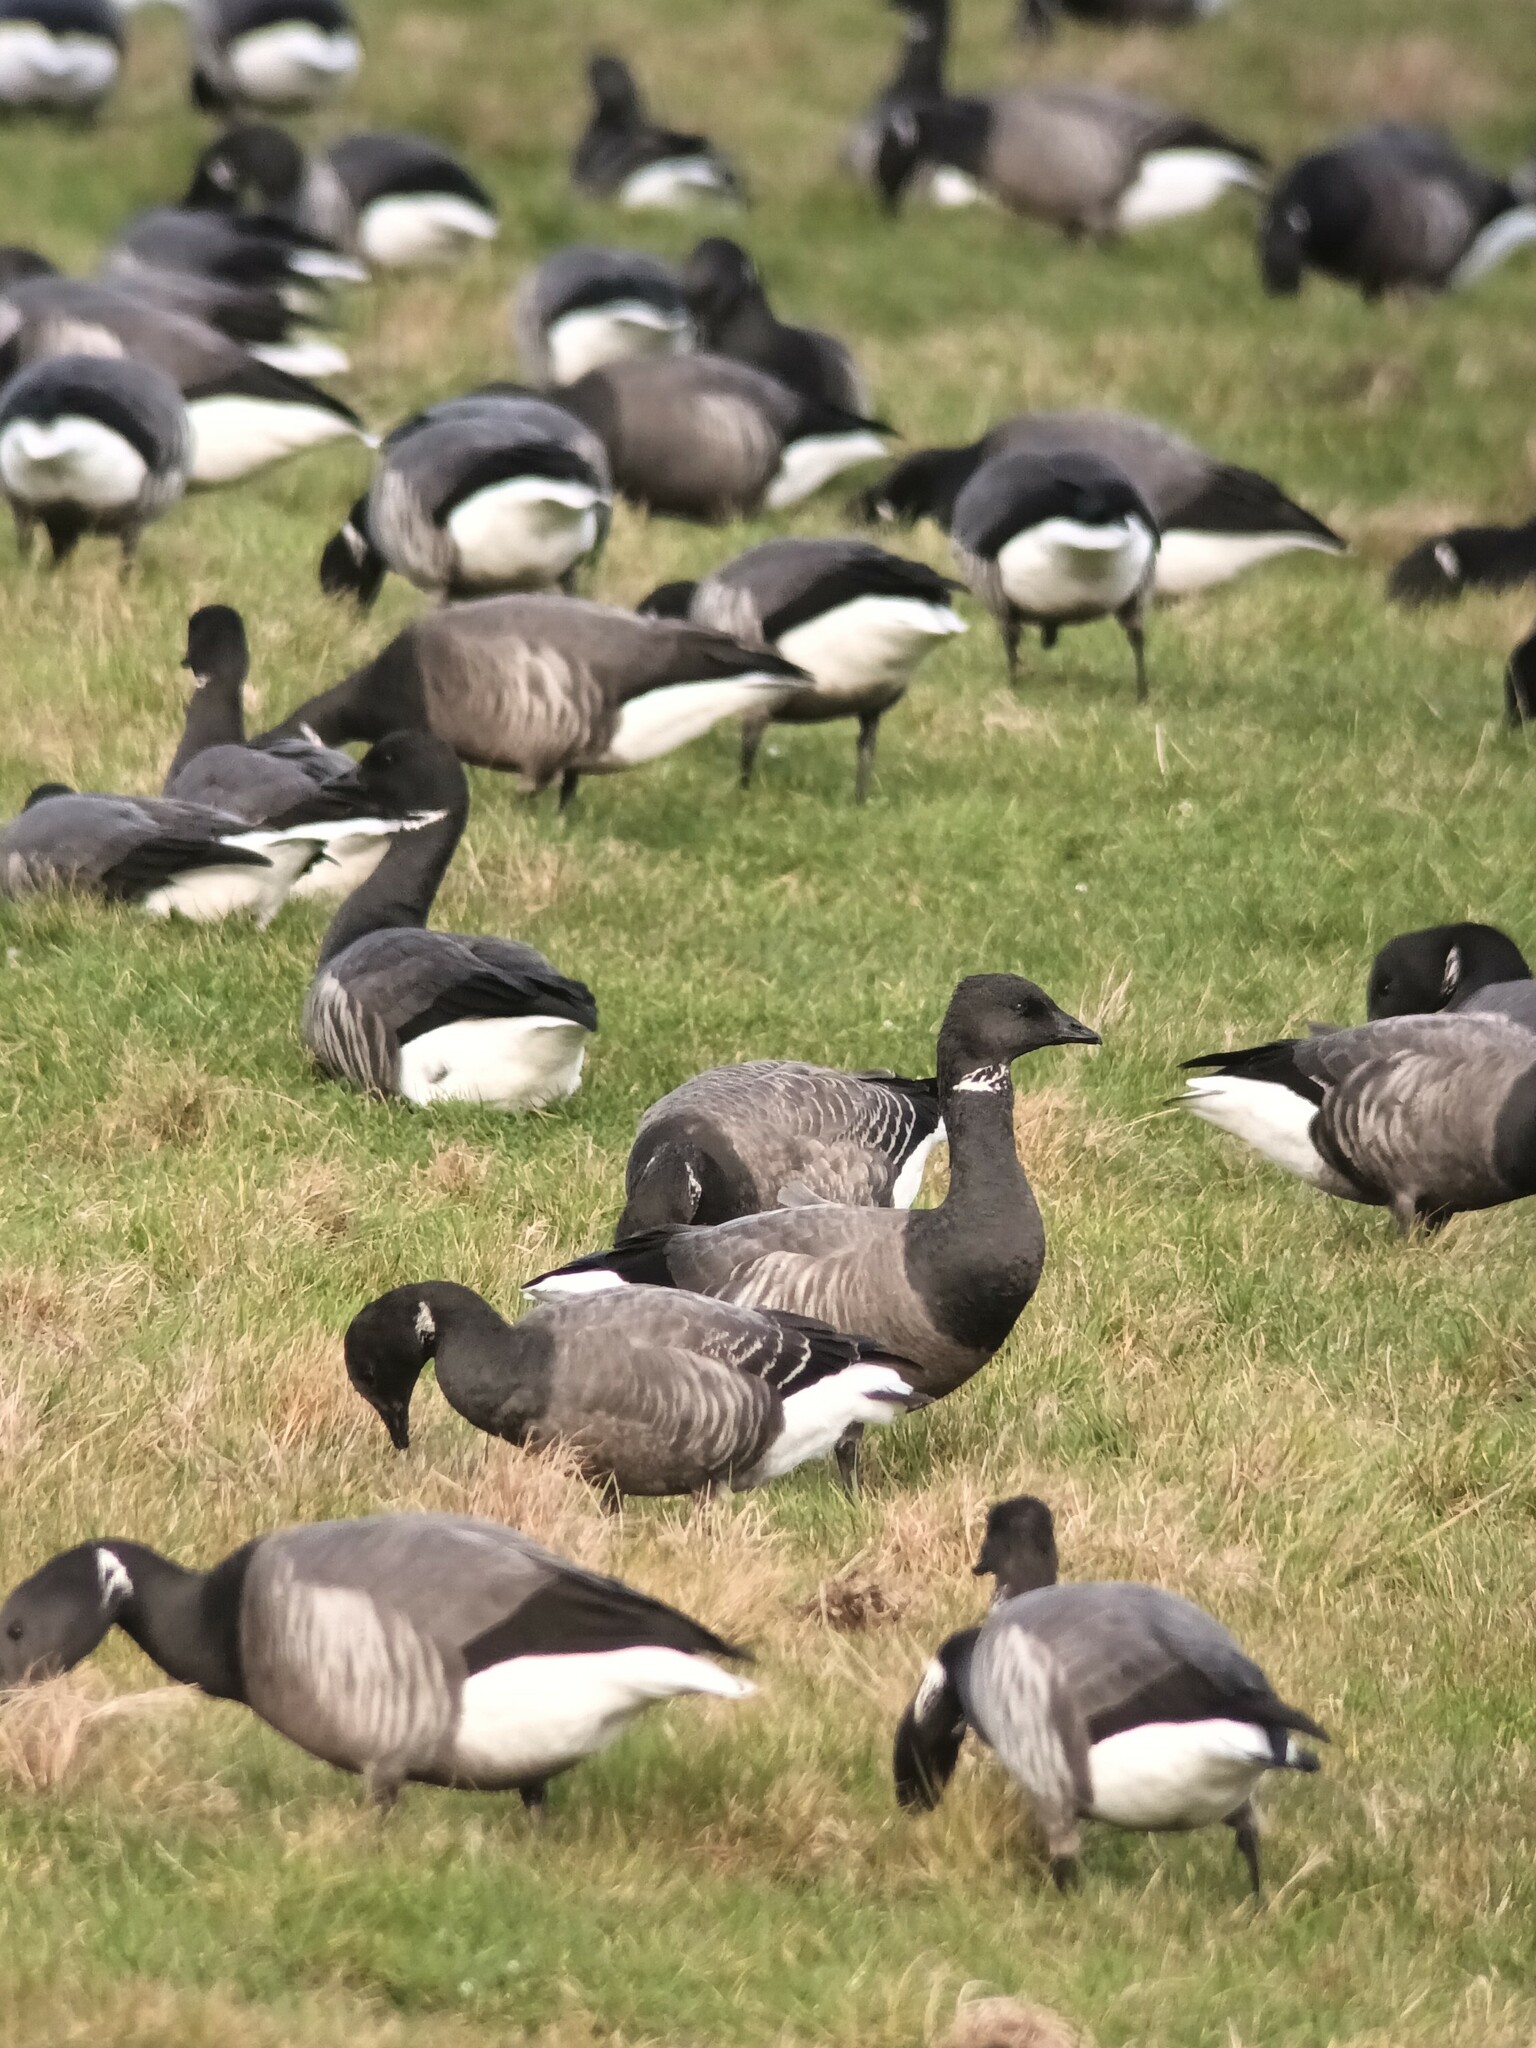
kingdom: Animalia
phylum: Chordata
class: Aves
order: Anseriformes
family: Anatidae
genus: Branta
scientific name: Branta bernicla
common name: Brant goose
